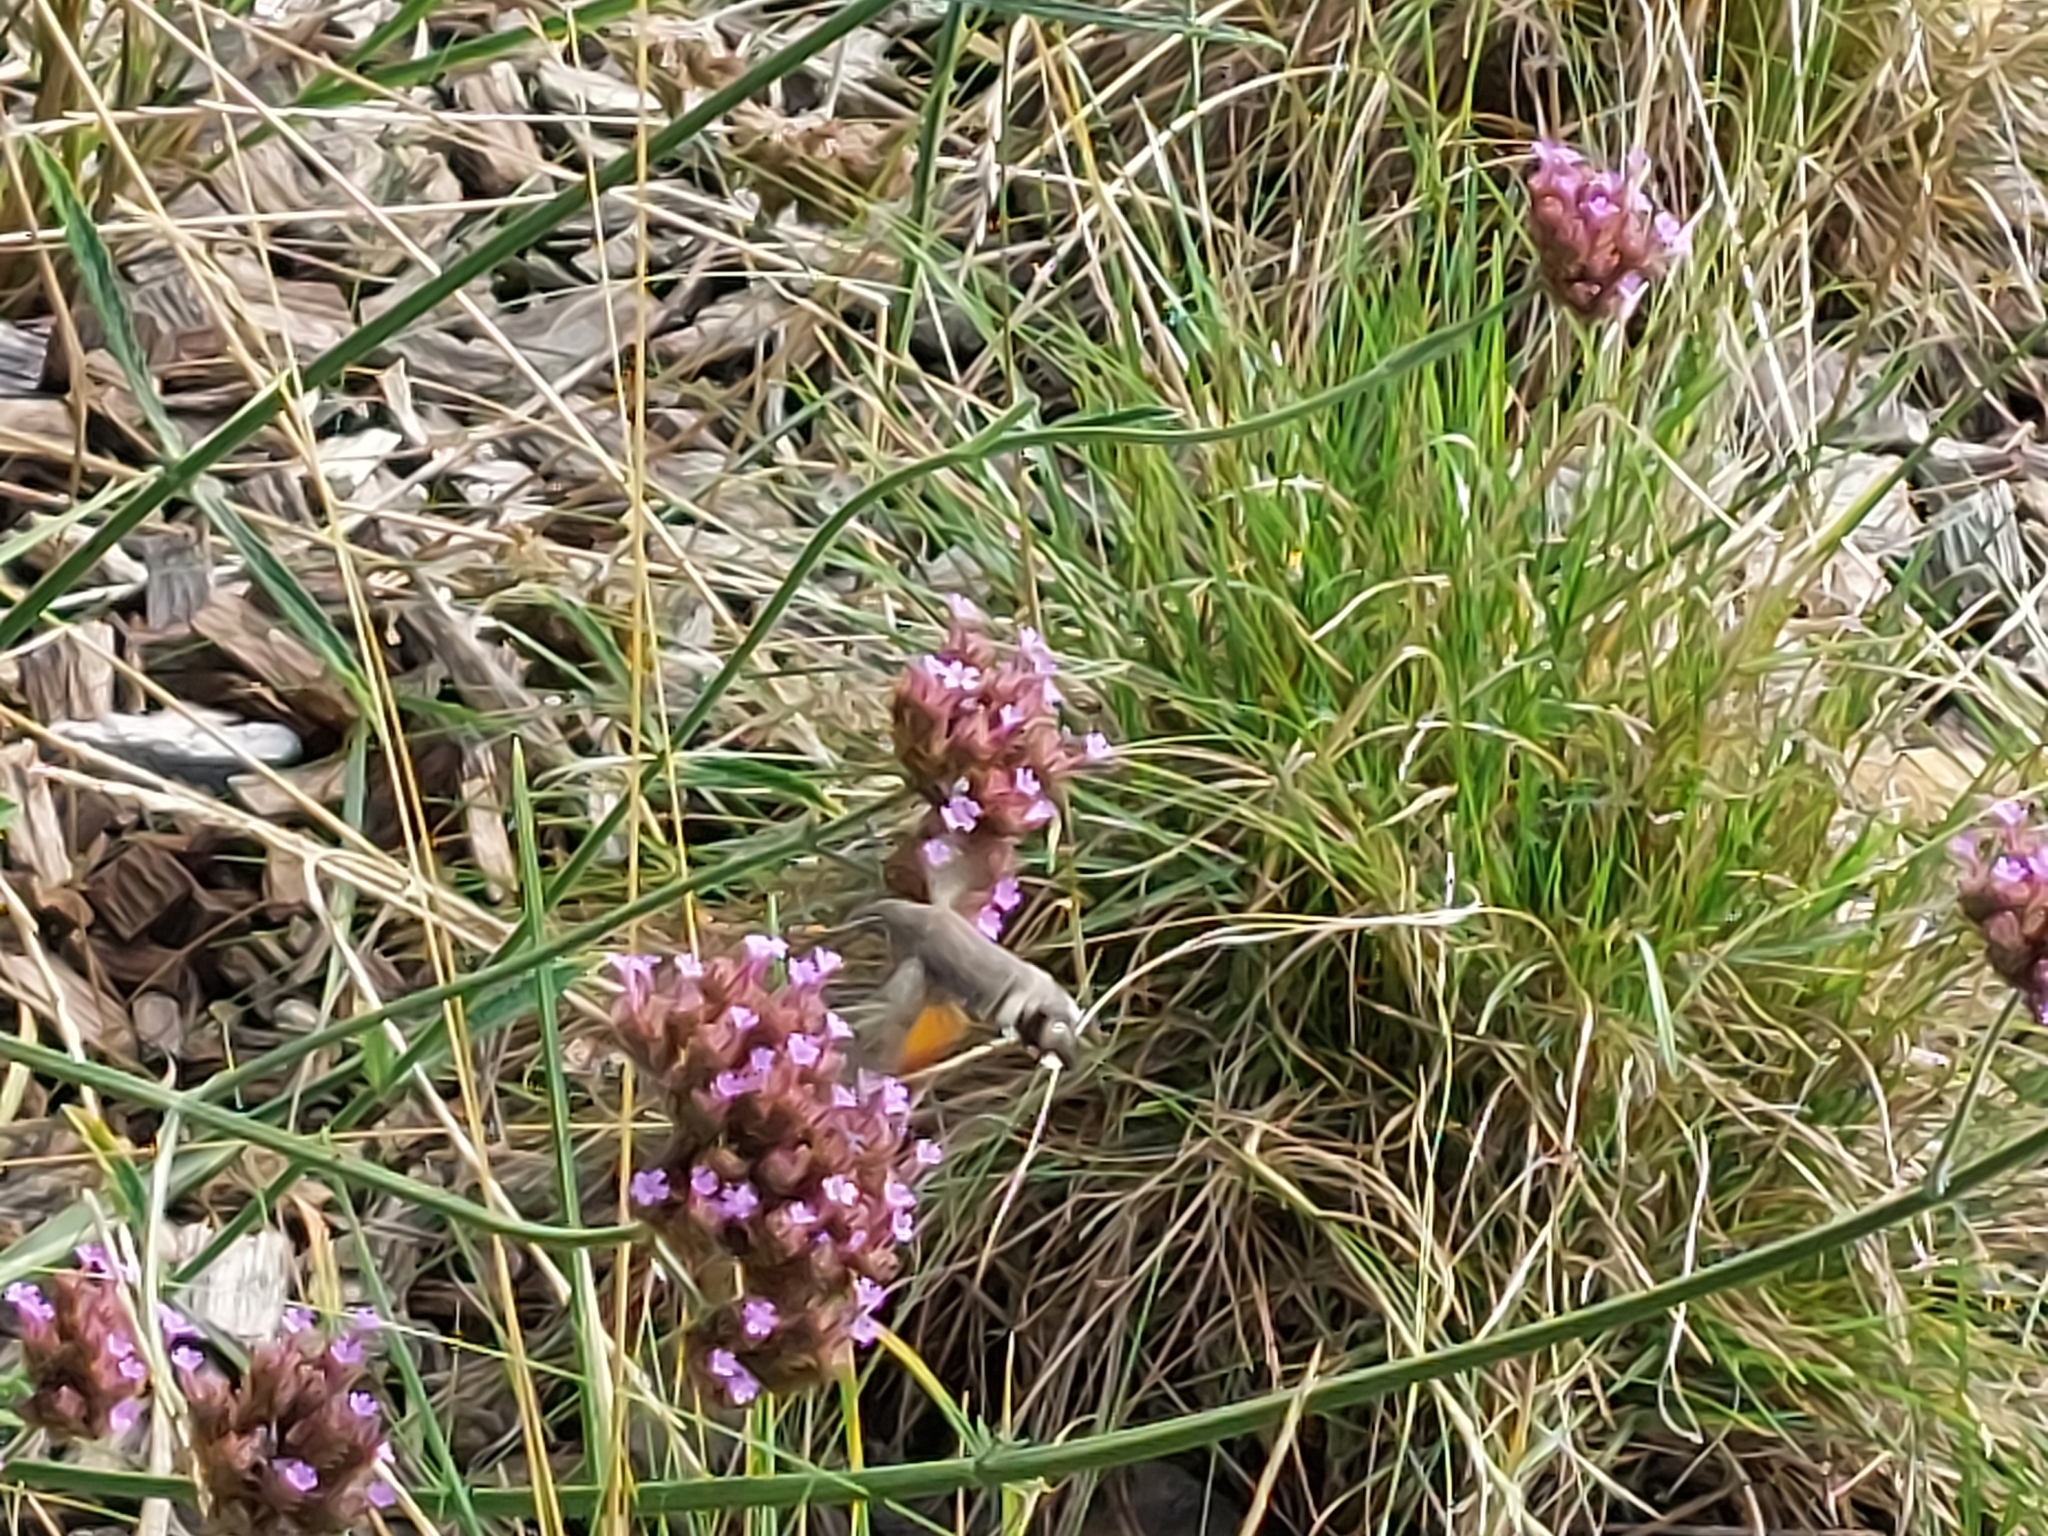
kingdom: Animalia
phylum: Arthropoda
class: Insecta
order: Lepidoptera
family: Sphingidae
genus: Macroglossum
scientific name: Macroglossum stellatarum
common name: Humming-bird hawk-moth
